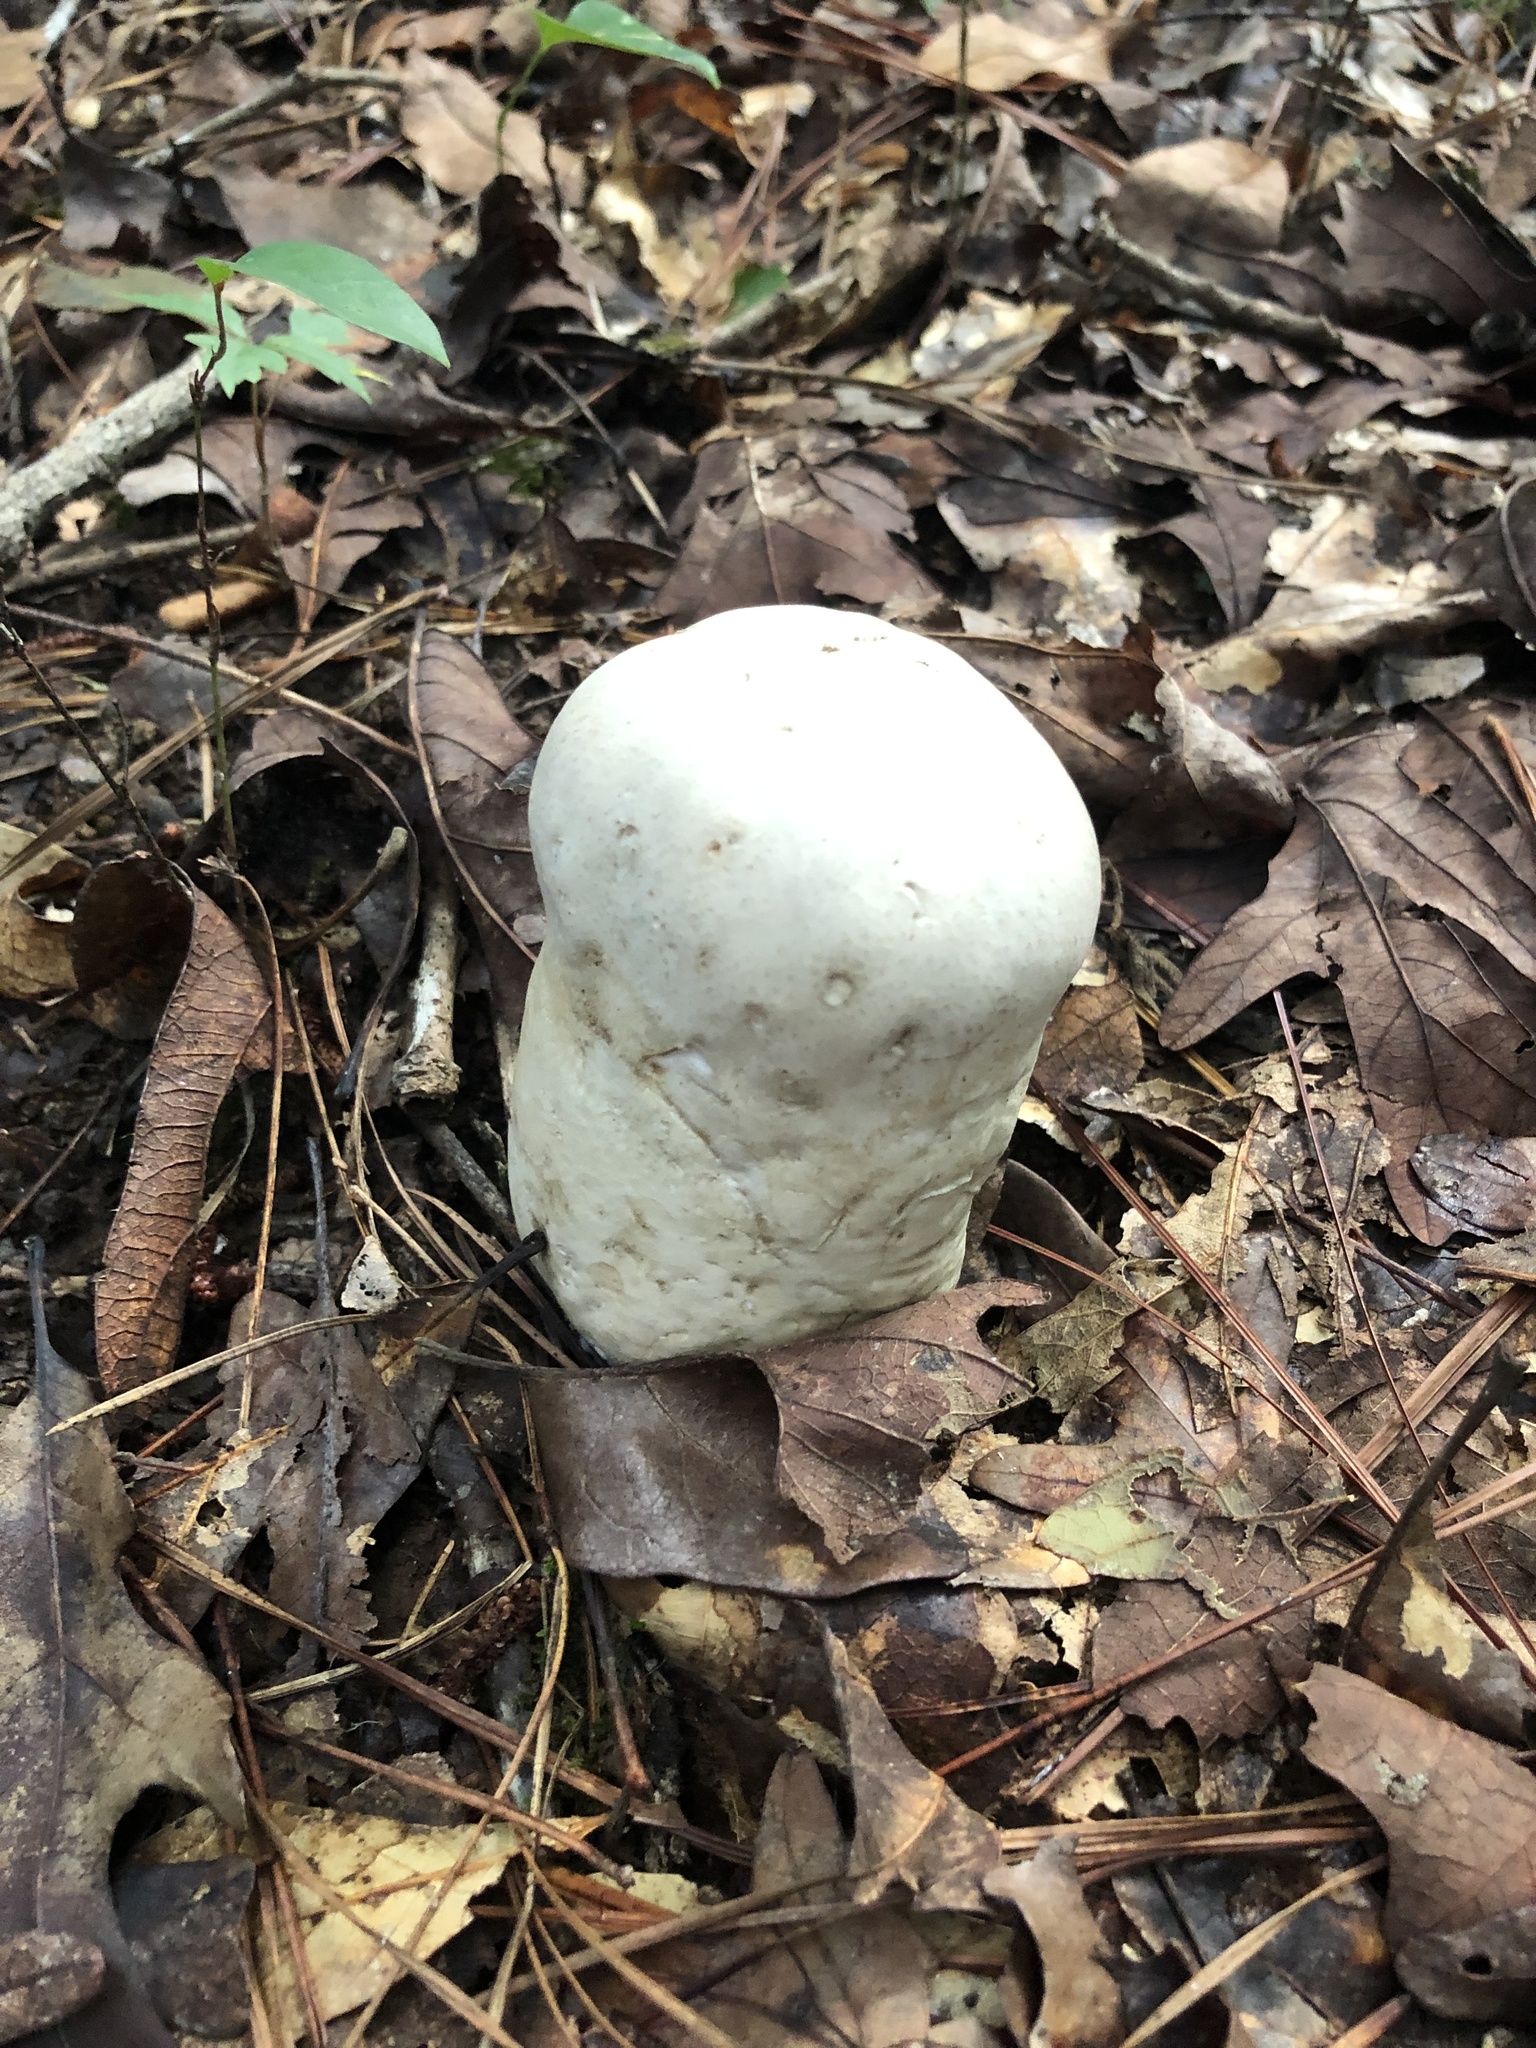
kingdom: Fungi
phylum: Basidiomycota
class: Agaricomycetes
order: Agaricales
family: Lycoperdaceae
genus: Calvatia
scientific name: Calvatia gigantea
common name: Giant puffball
